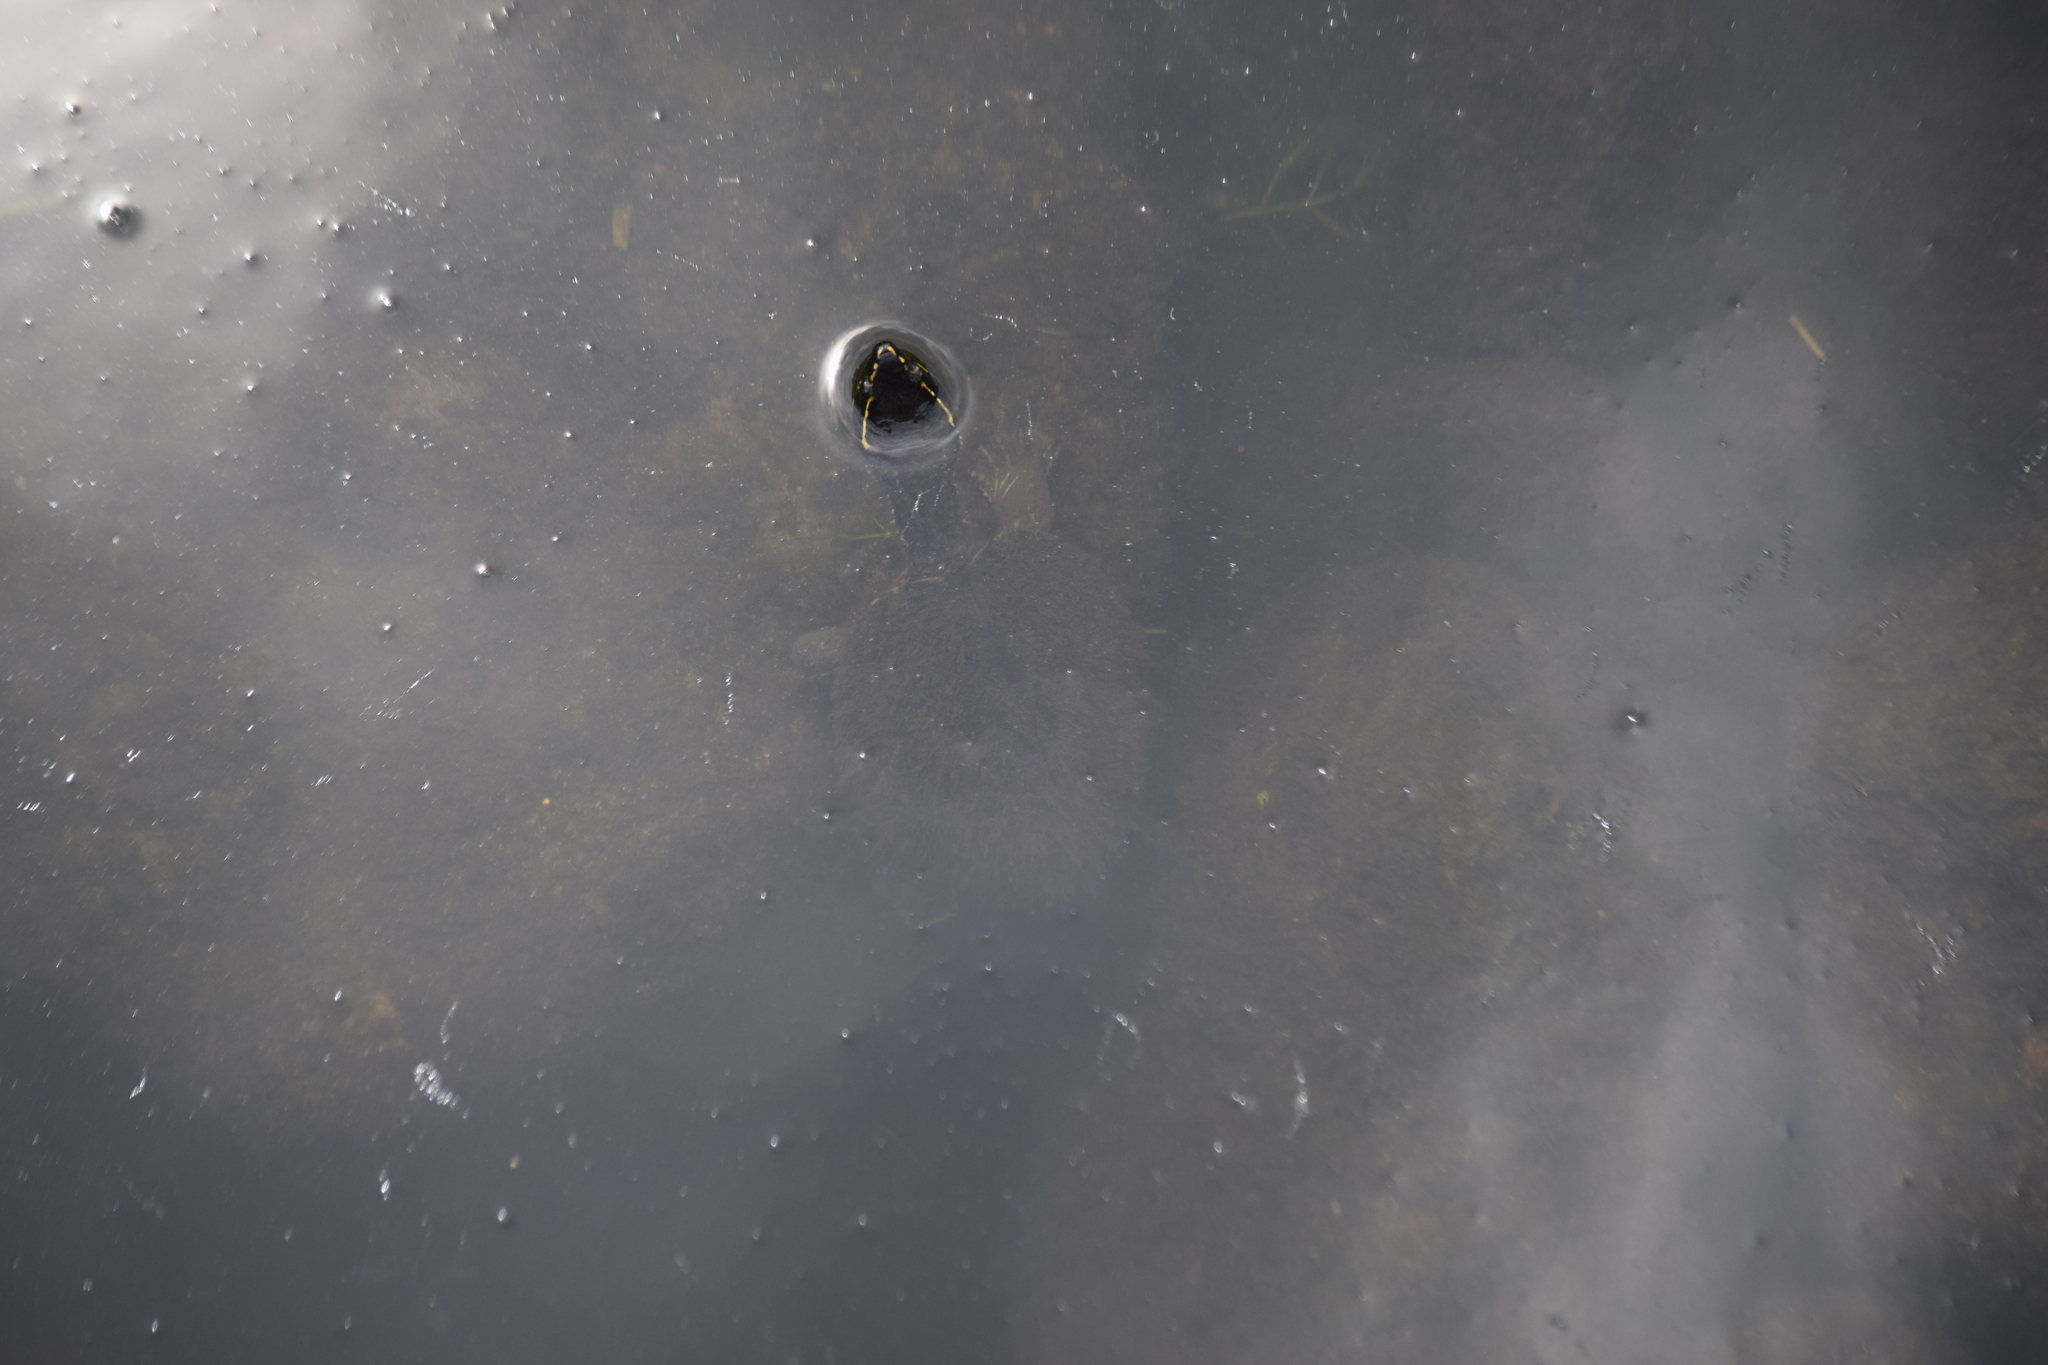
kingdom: Animalia
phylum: Chordata
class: Testudines
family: Kinosternidae
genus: Sternotherus
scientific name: Sternotherus odoratus
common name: Common musk turtle
